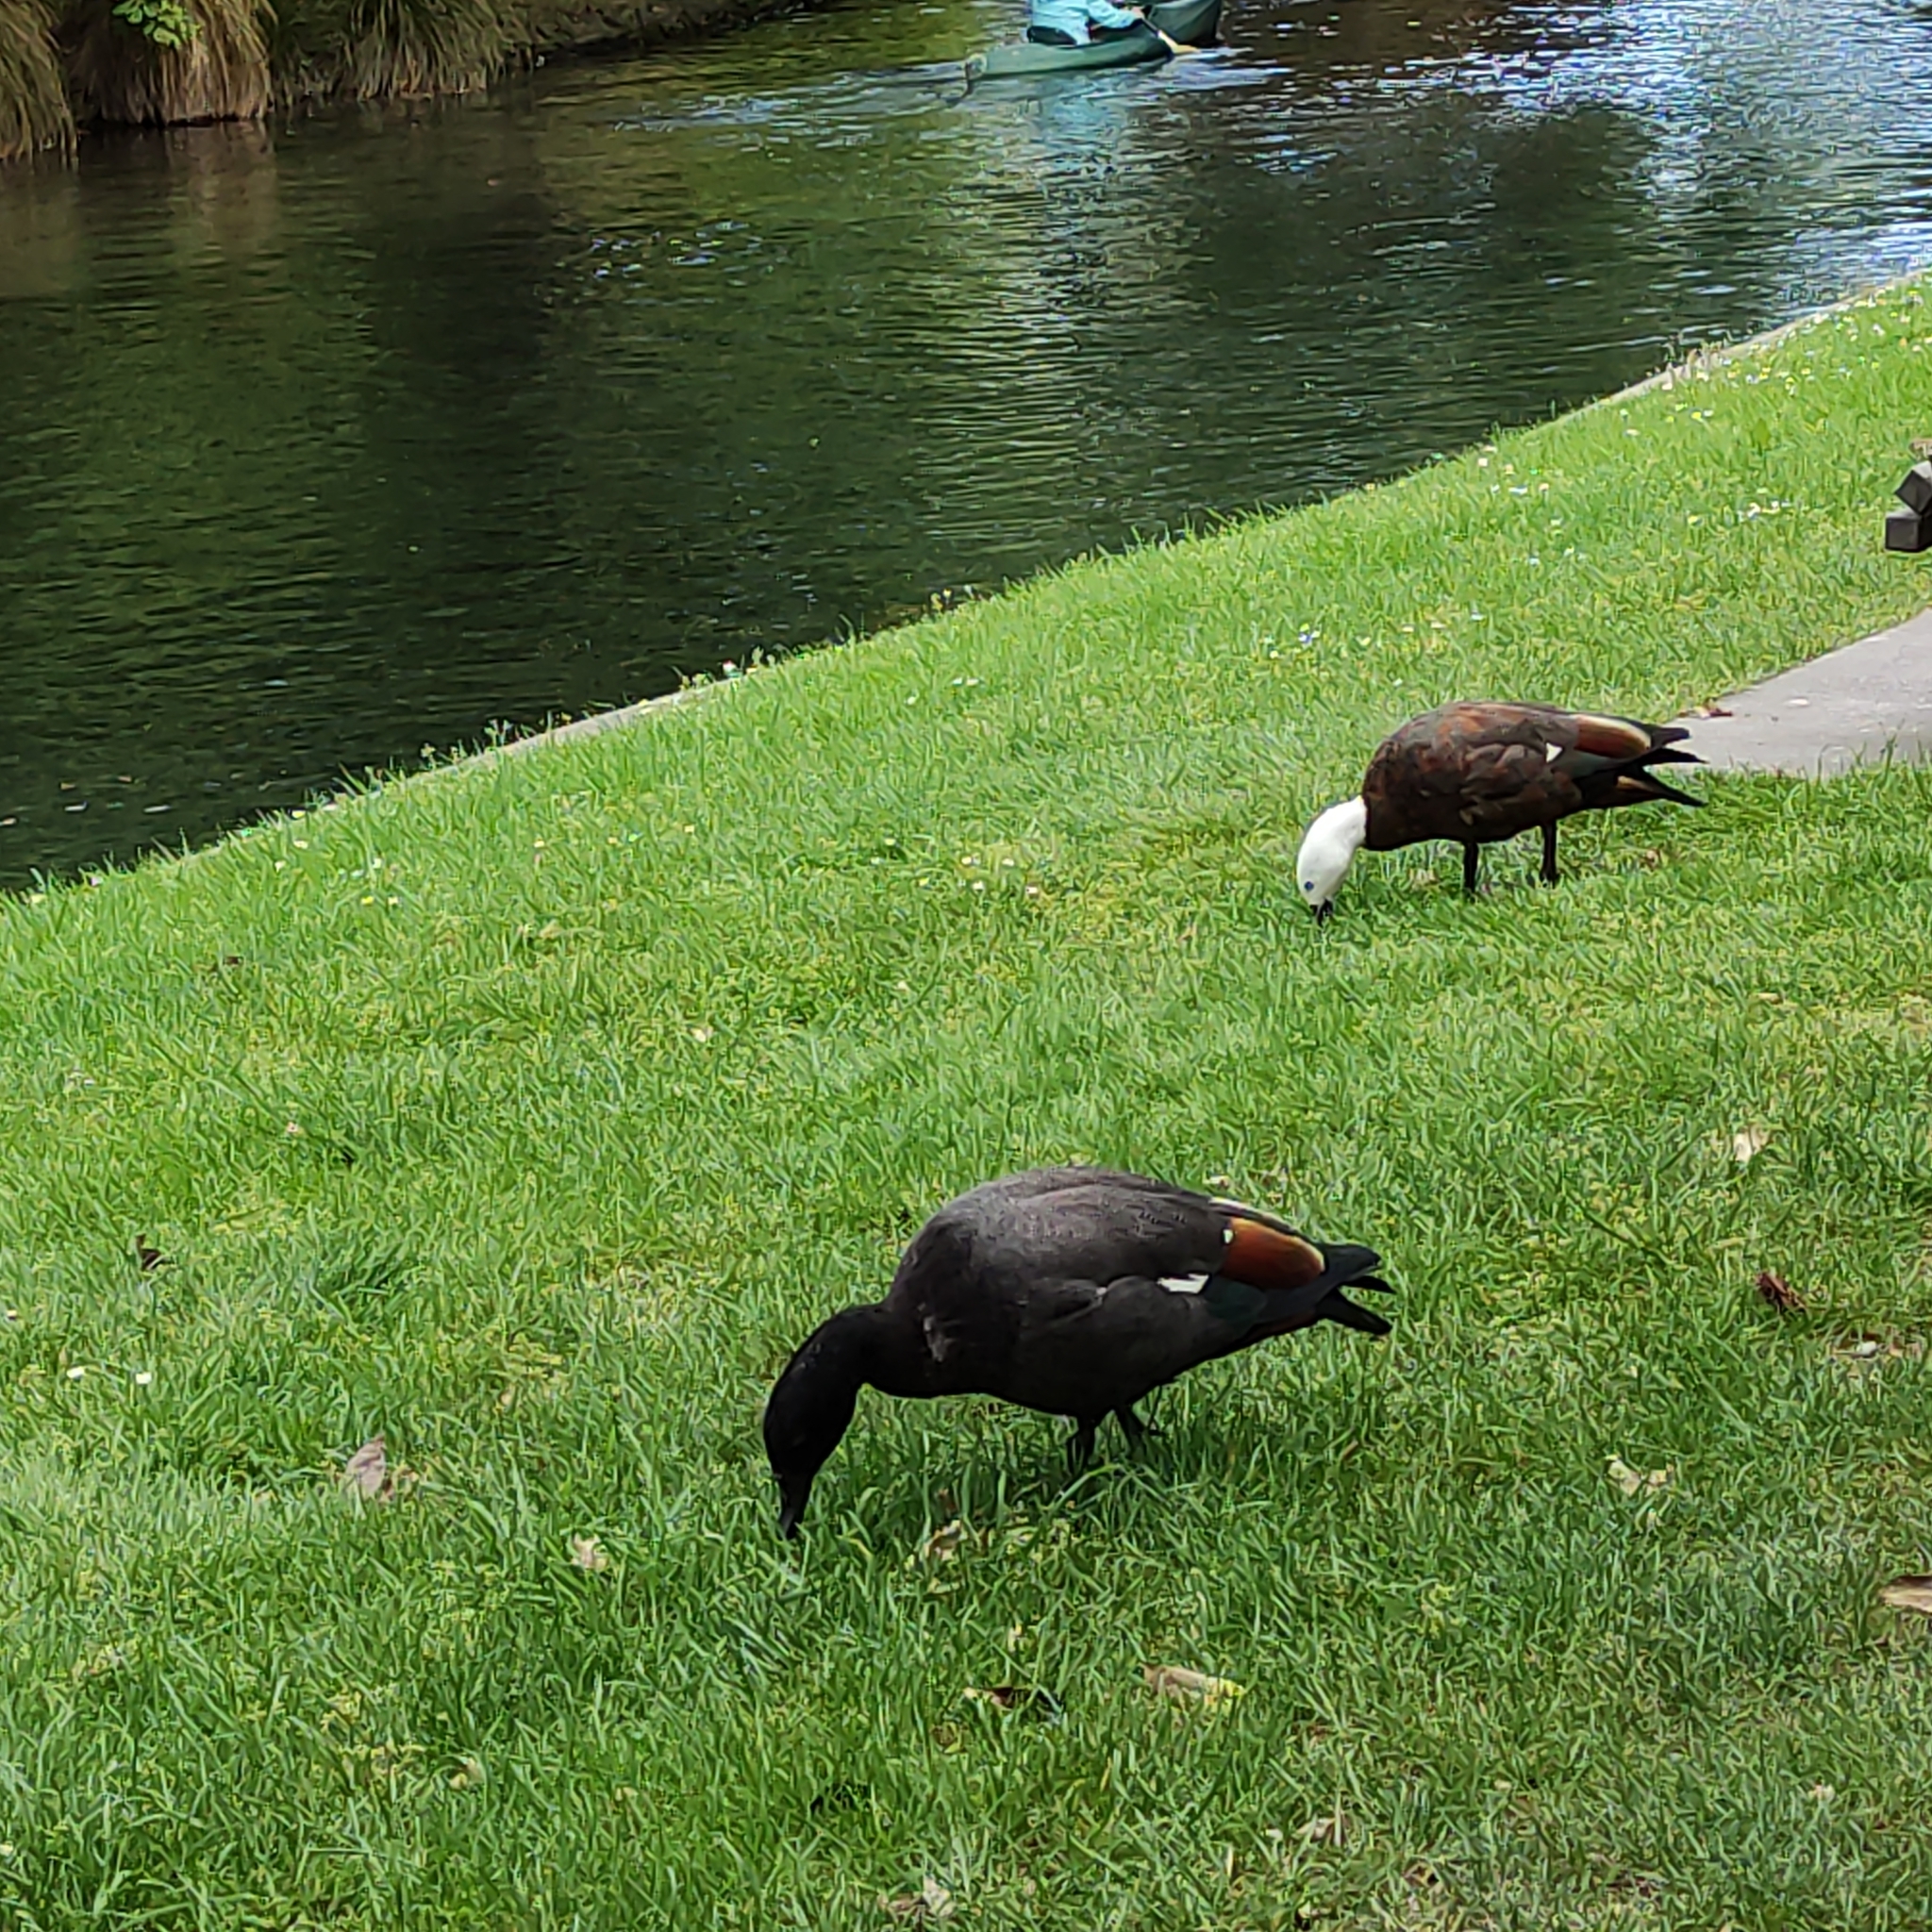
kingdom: Animalia
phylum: Chordata
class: Aves
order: Anseriformes
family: Anatidae
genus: Tadorna
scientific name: Tadorna variegata
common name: Paradise shelduck
